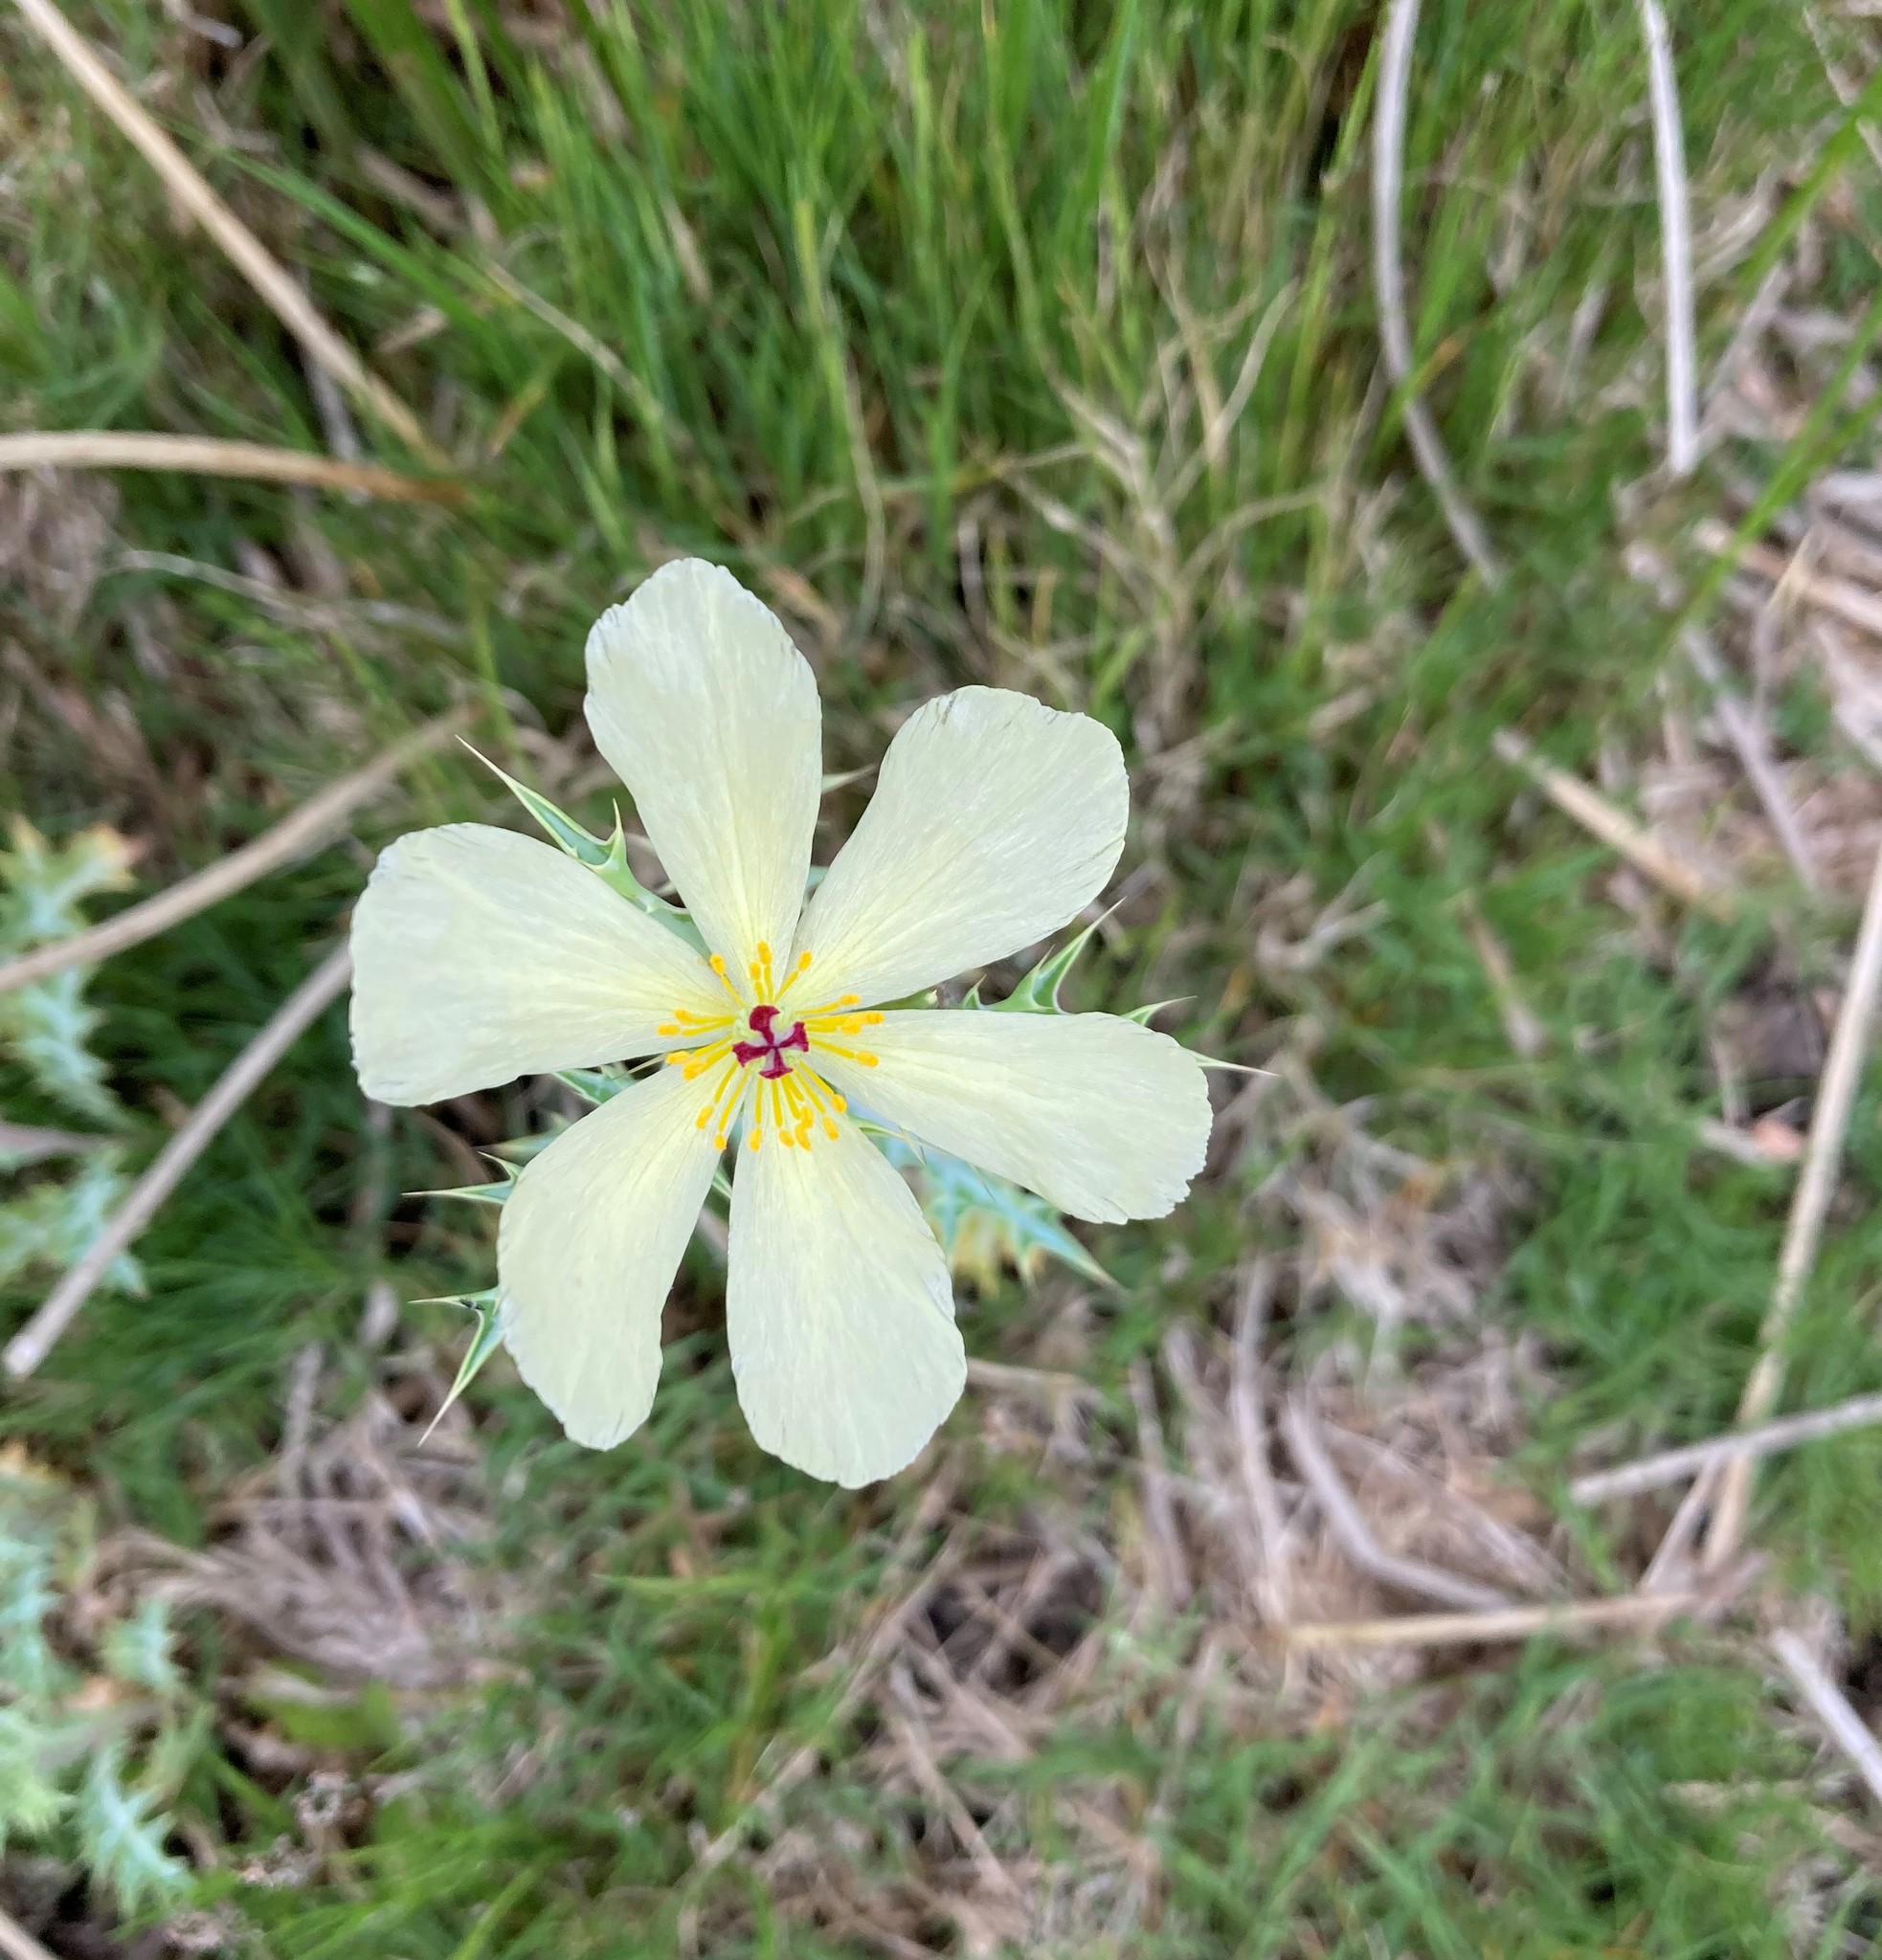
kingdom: Plantae
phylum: Tracheophyta
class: Magnoliopsida
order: Ranunculales
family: Papaveraceae
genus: Argemone
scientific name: Argemone ochroleuca
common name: White-flower mexican-poppy
